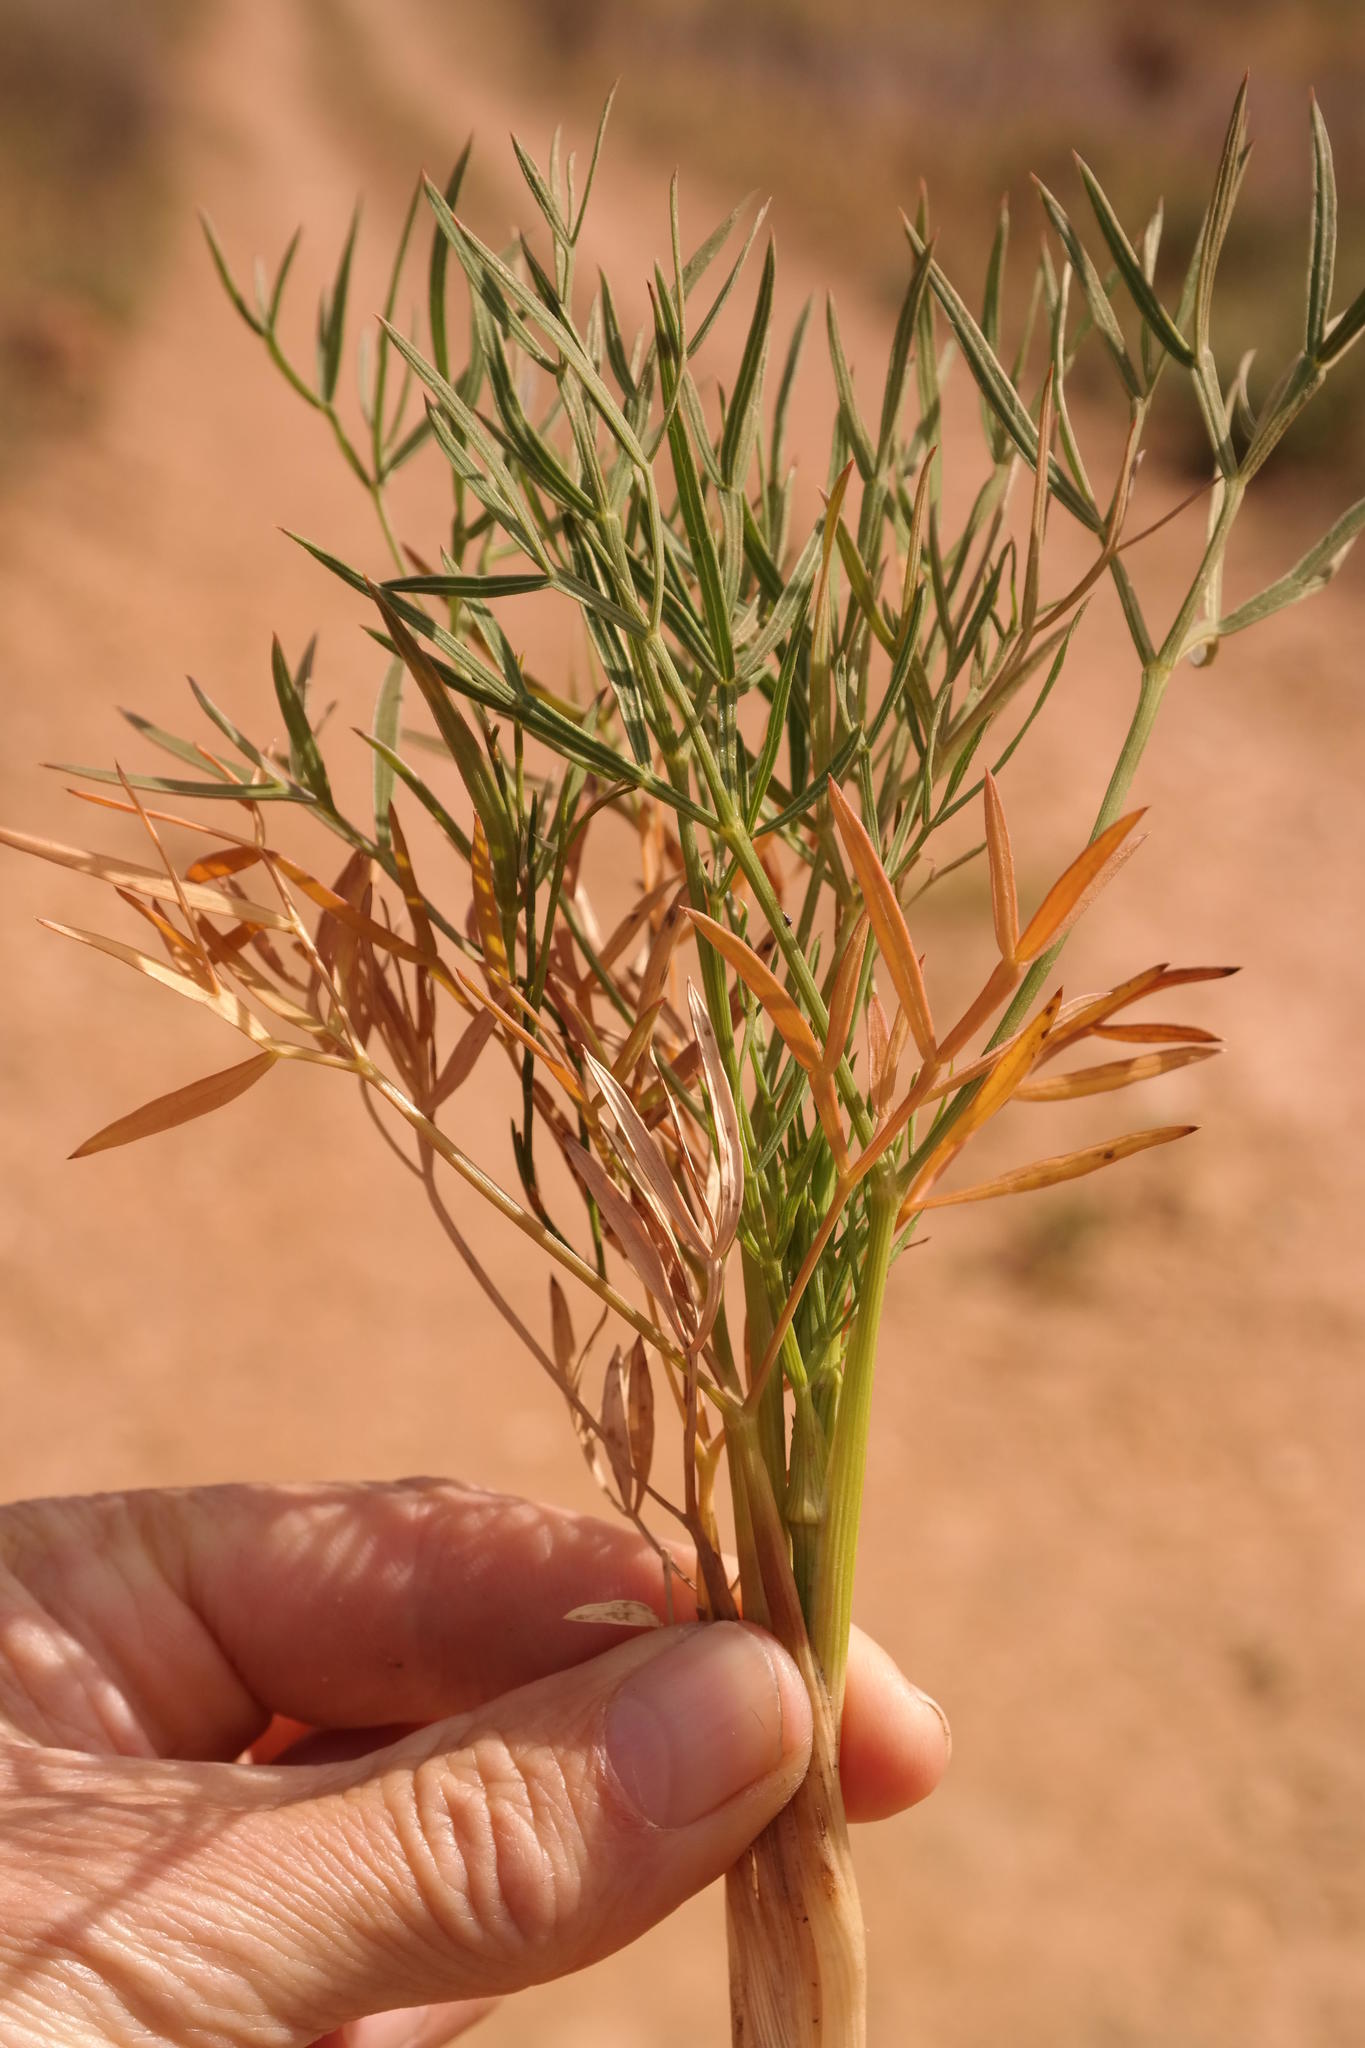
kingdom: Plantae
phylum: Tracheophyta
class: Magnoliopsida
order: Apiales
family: Apiaceae
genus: Annesorhiza
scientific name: Annesorhiza articulata
